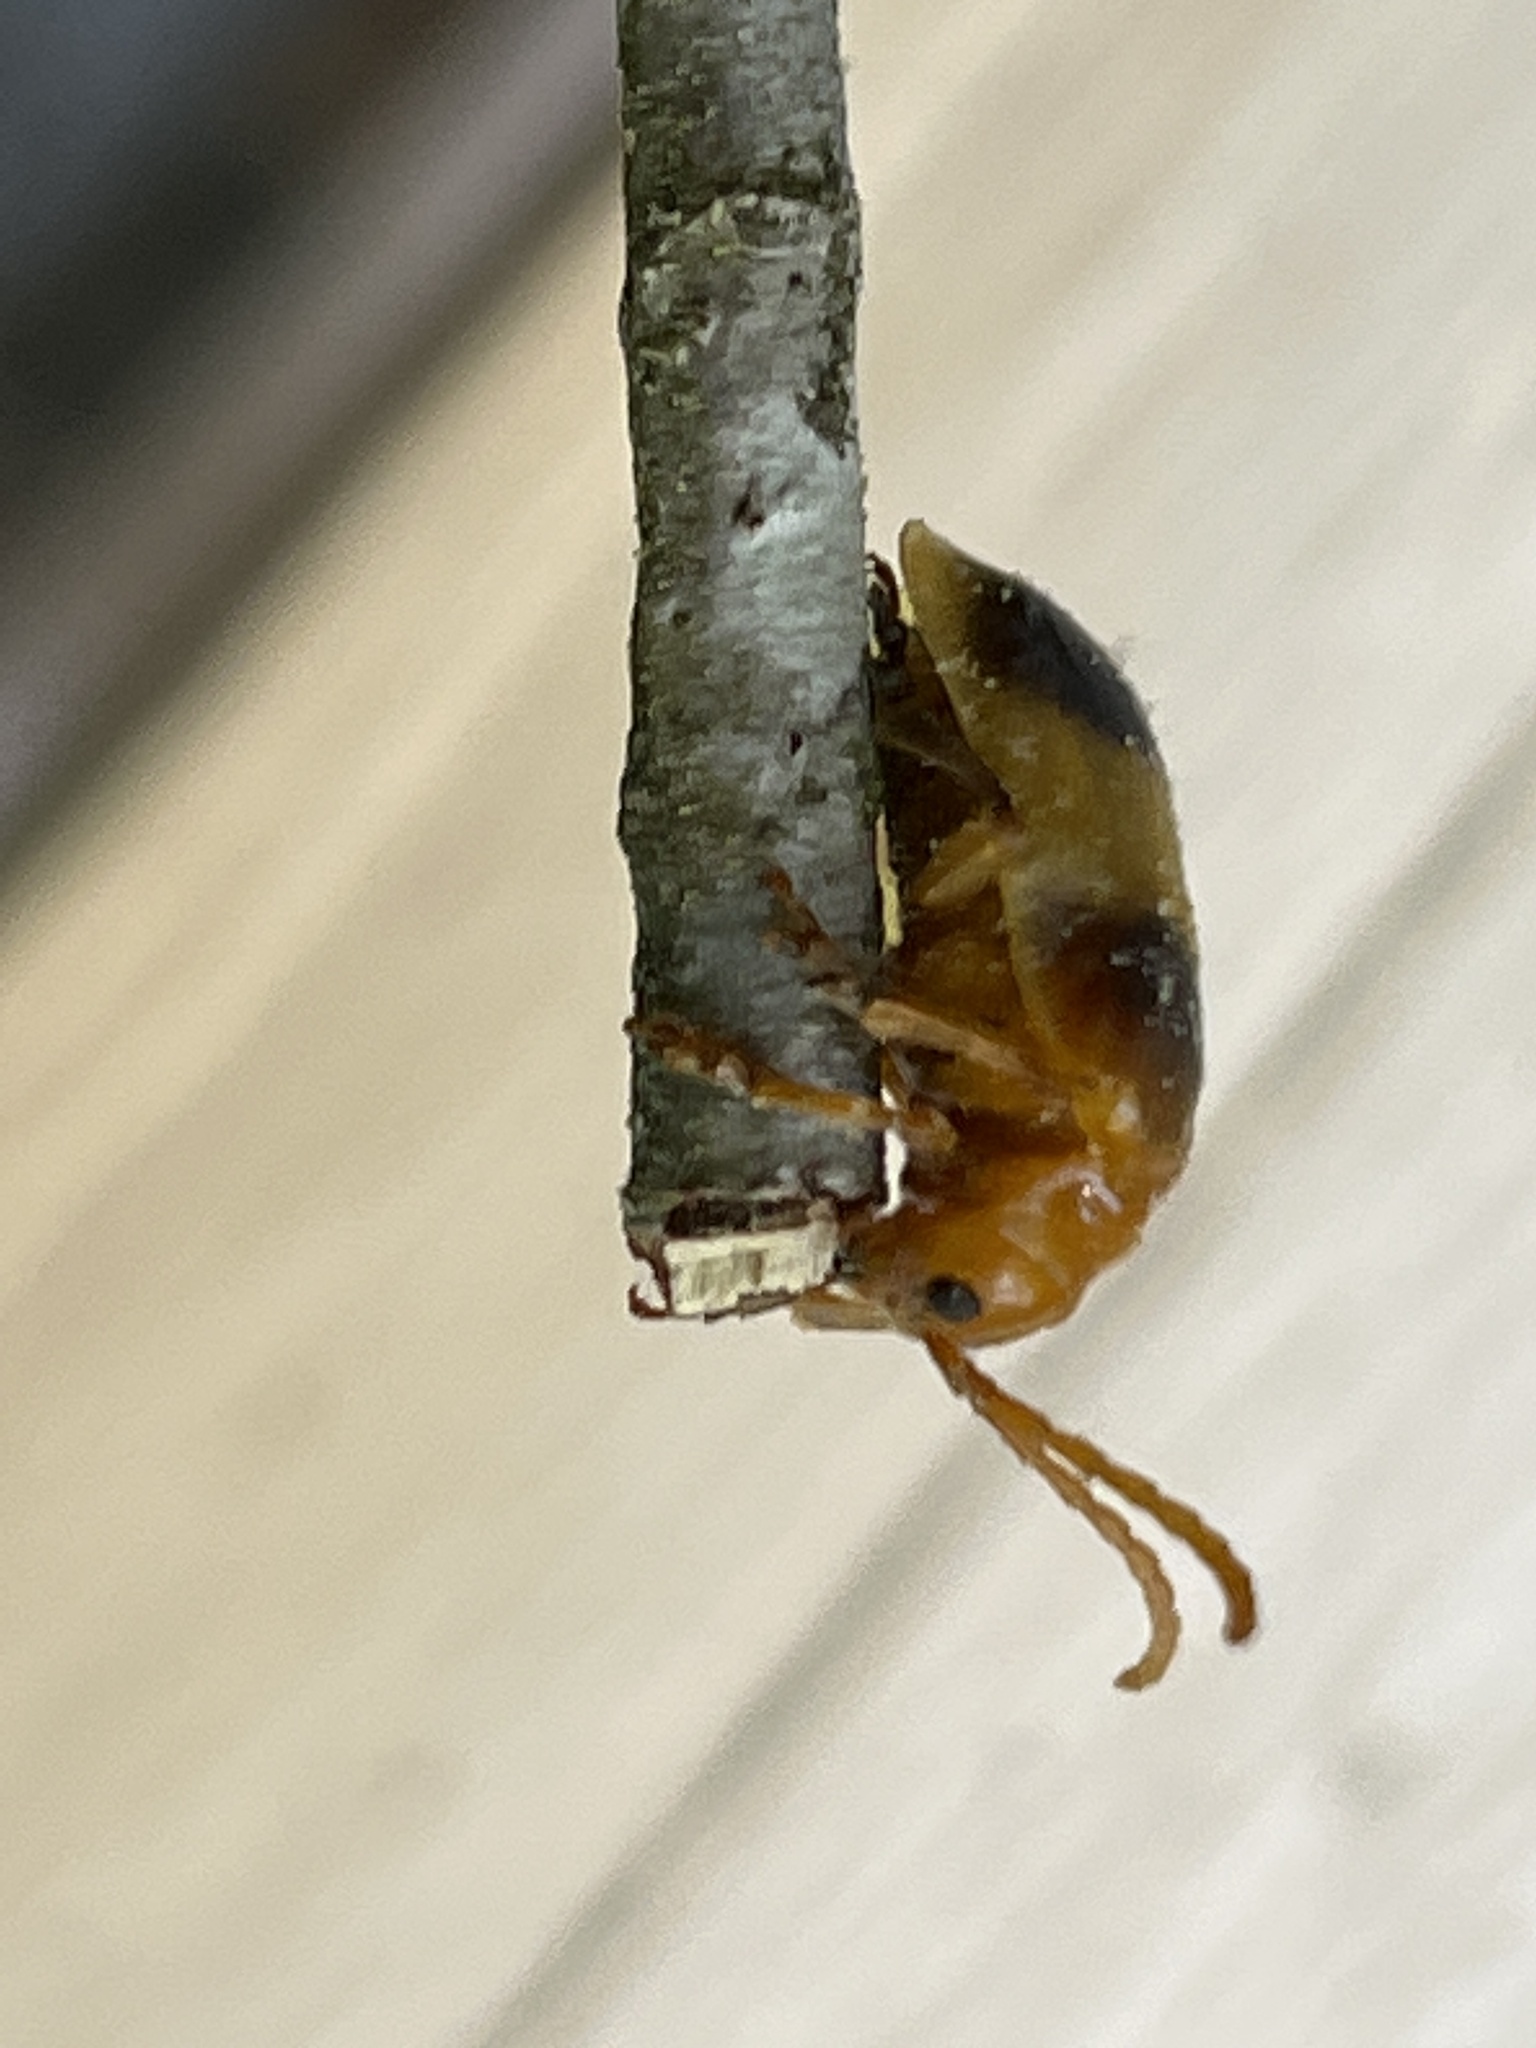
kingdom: Animalia
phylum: Arthropoda
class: Insecta
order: Coleoptera
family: Chrysomelidae
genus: Monocesta
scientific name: Monocesta coryli
